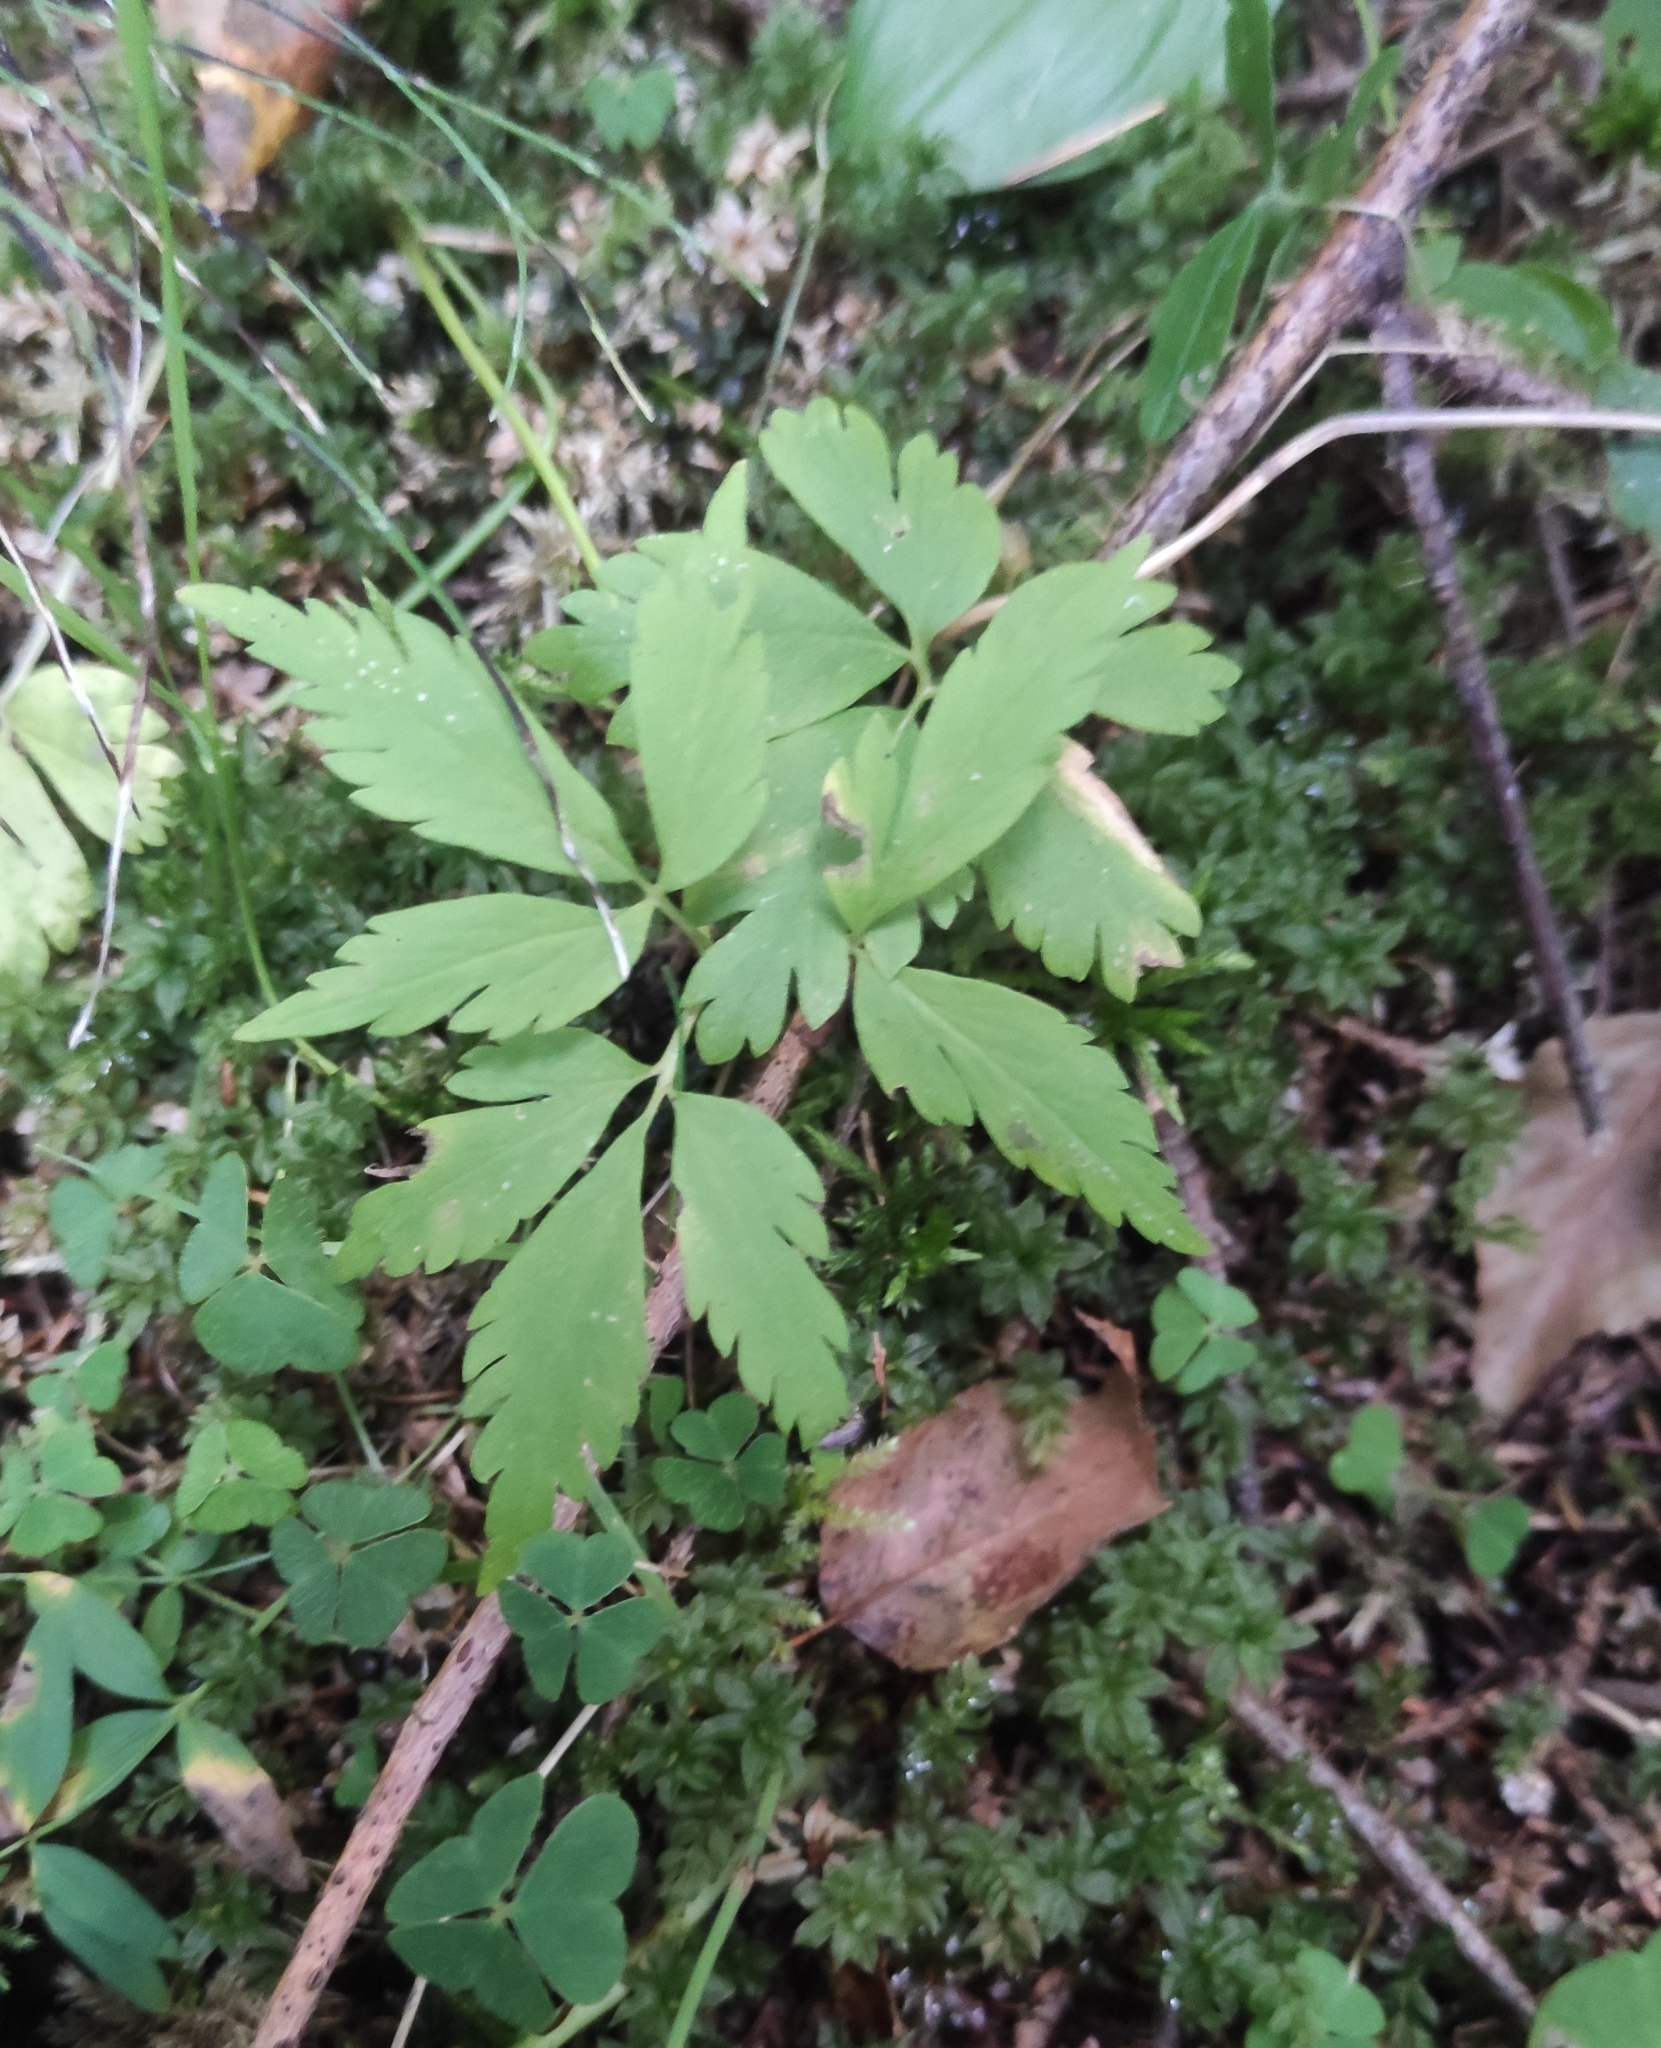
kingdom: Plantae
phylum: Tracheophyta
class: Magnoliopsida
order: Ranunculales
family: Ranunculaceae
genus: Anemone
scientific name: Anemone reflexa
